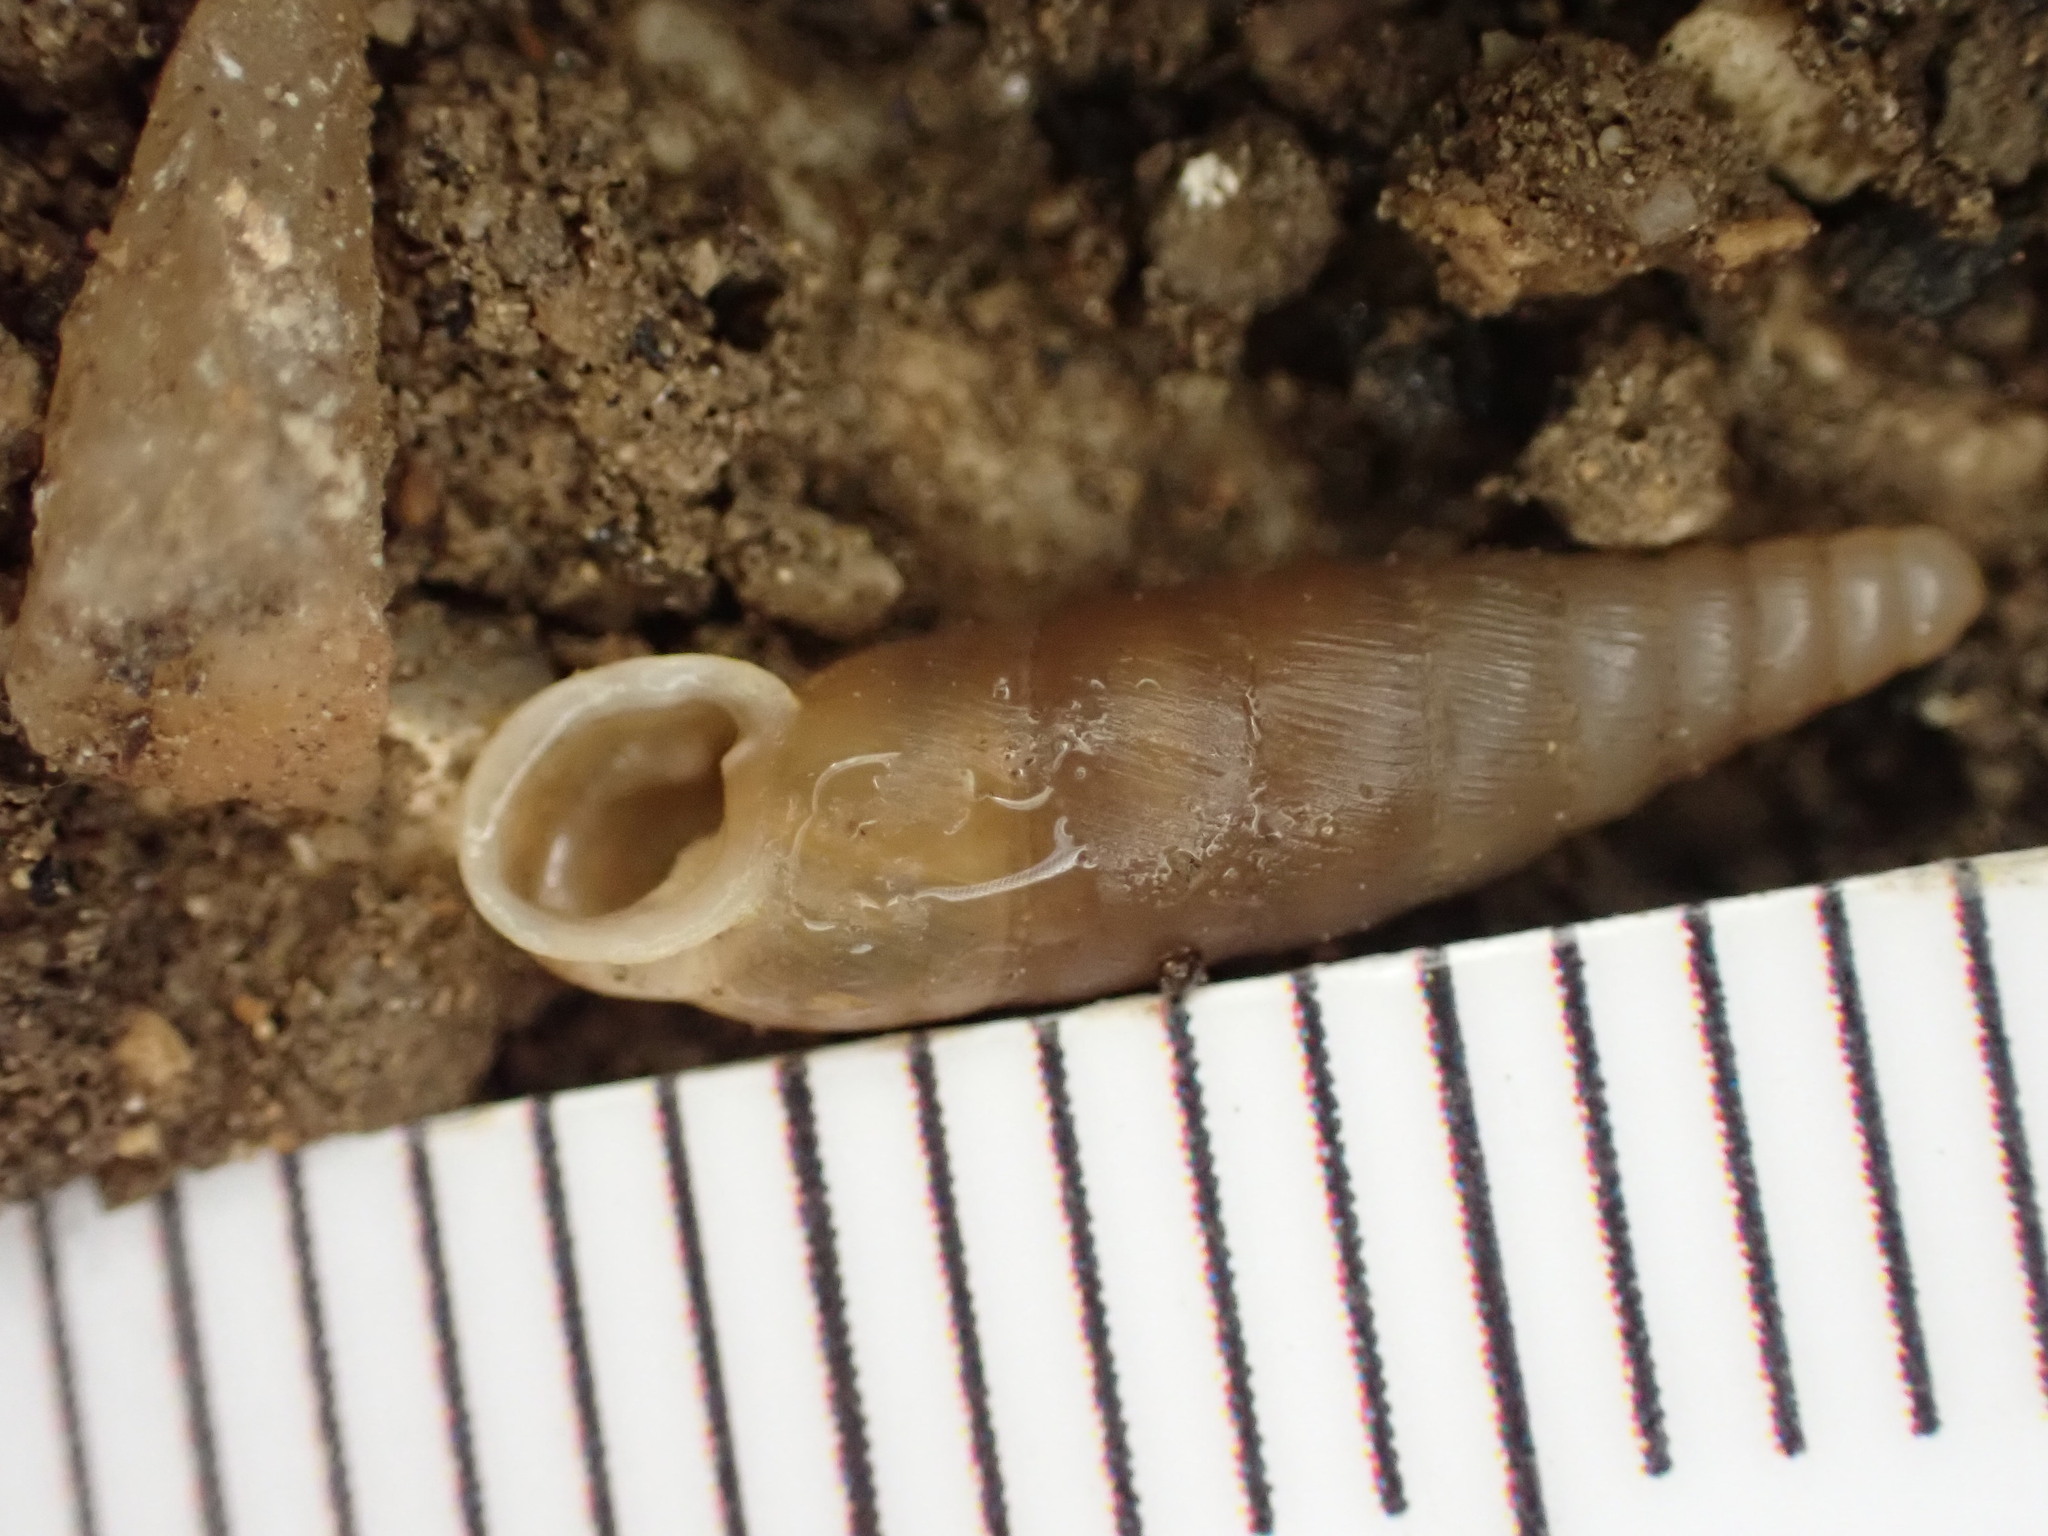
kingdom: Animalia
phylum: Mollusca
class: Gastropoda
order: Stylommatophora
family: Clausiliidae
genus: Papillifera
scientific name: Papillifera solida
